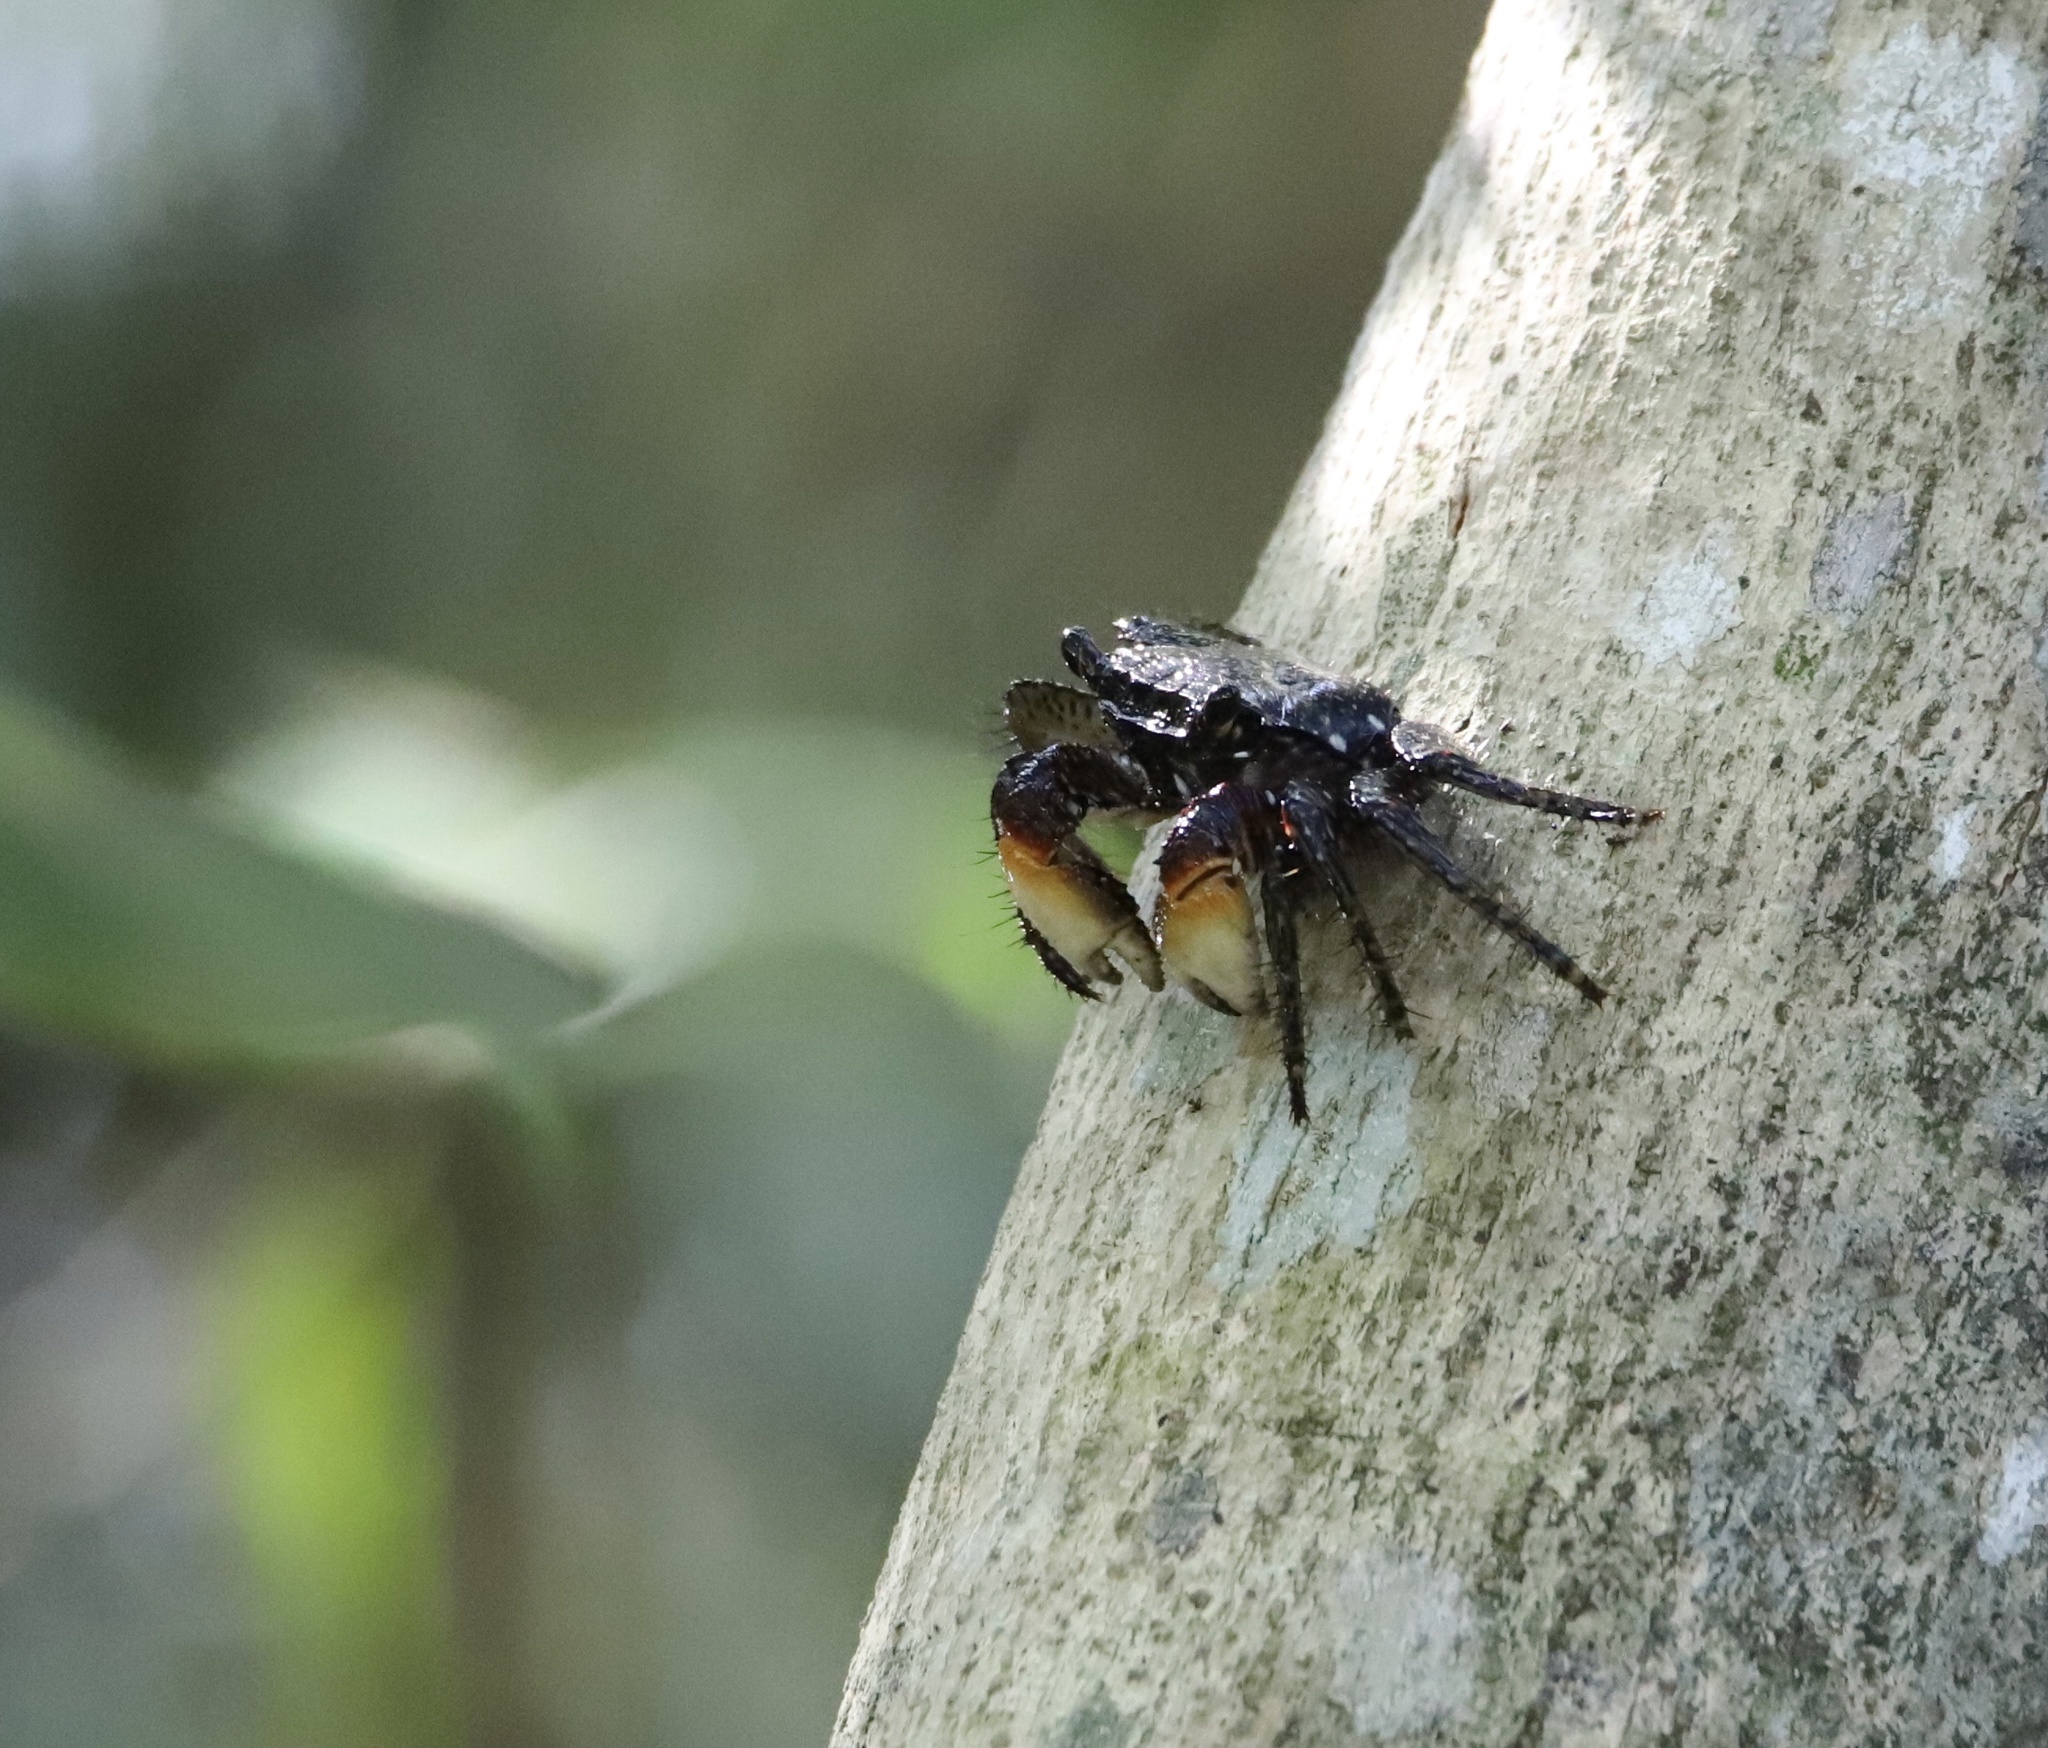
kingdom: Animalia
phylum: Arthropoda
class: Malacostraca
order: Decapoda
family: Grapsidae
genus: Goniopsis
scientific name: Goniopsis pulchra
